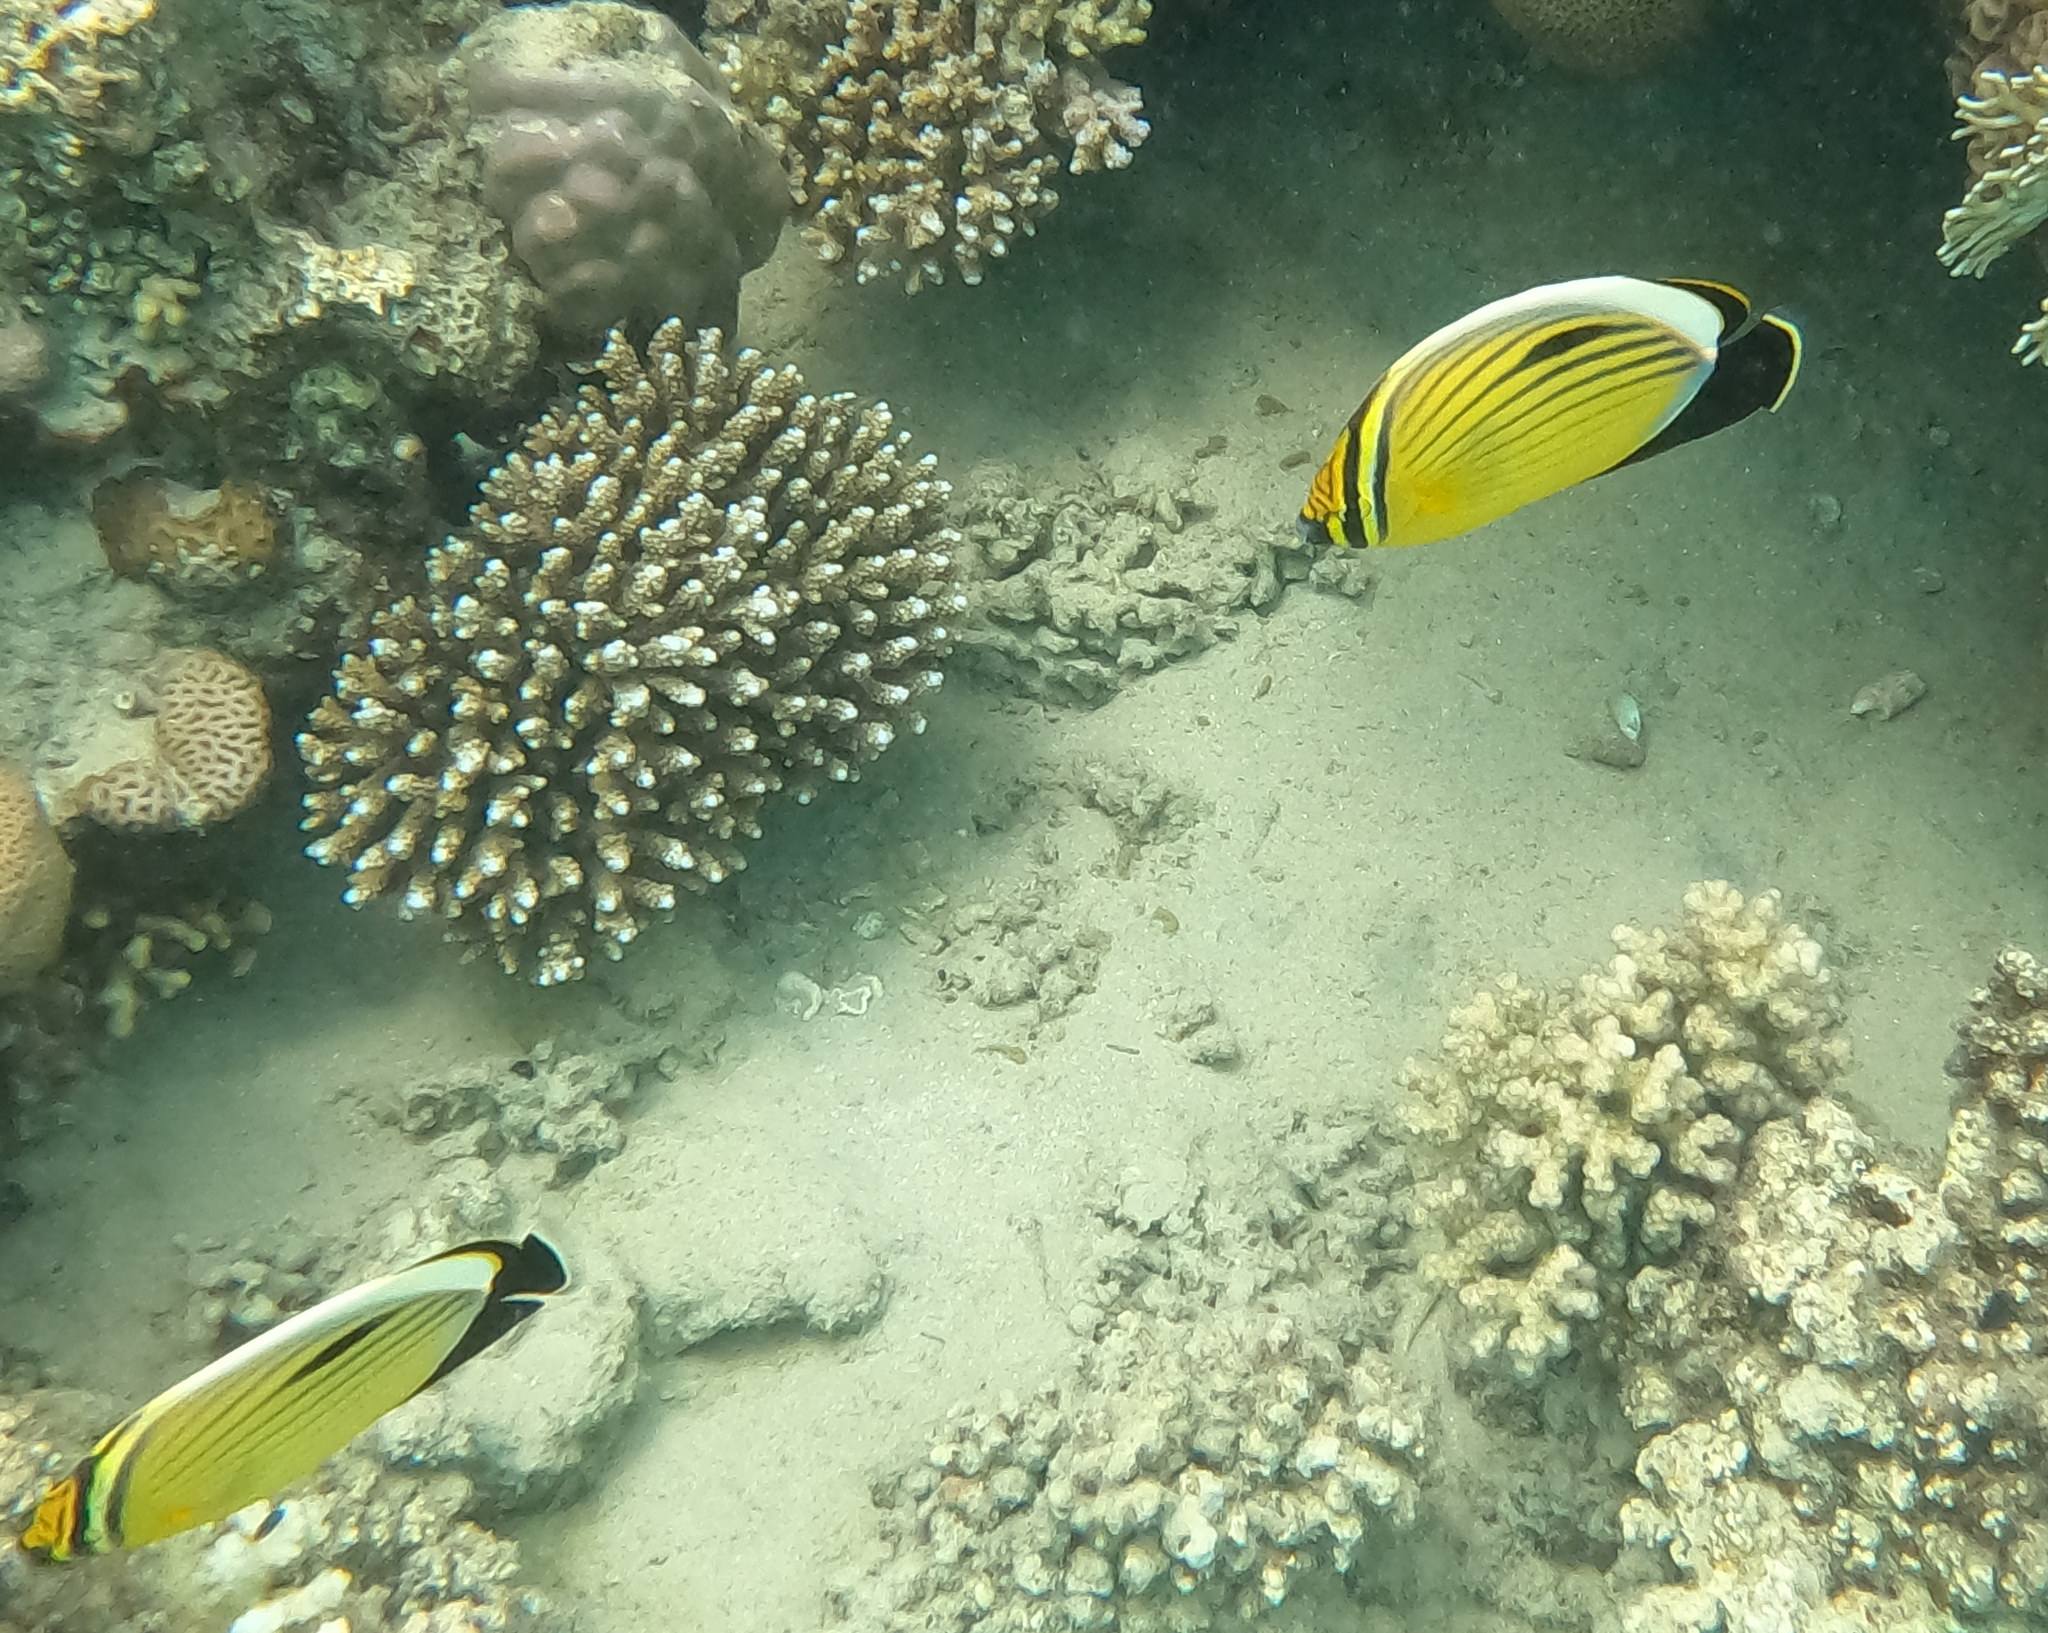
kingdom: Animalia
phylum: Chordata
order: Perciformes
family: Chaetodontidae
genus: Chaetodon
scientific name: Chaetodon austriacus
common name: Exquisite butterflyfish
